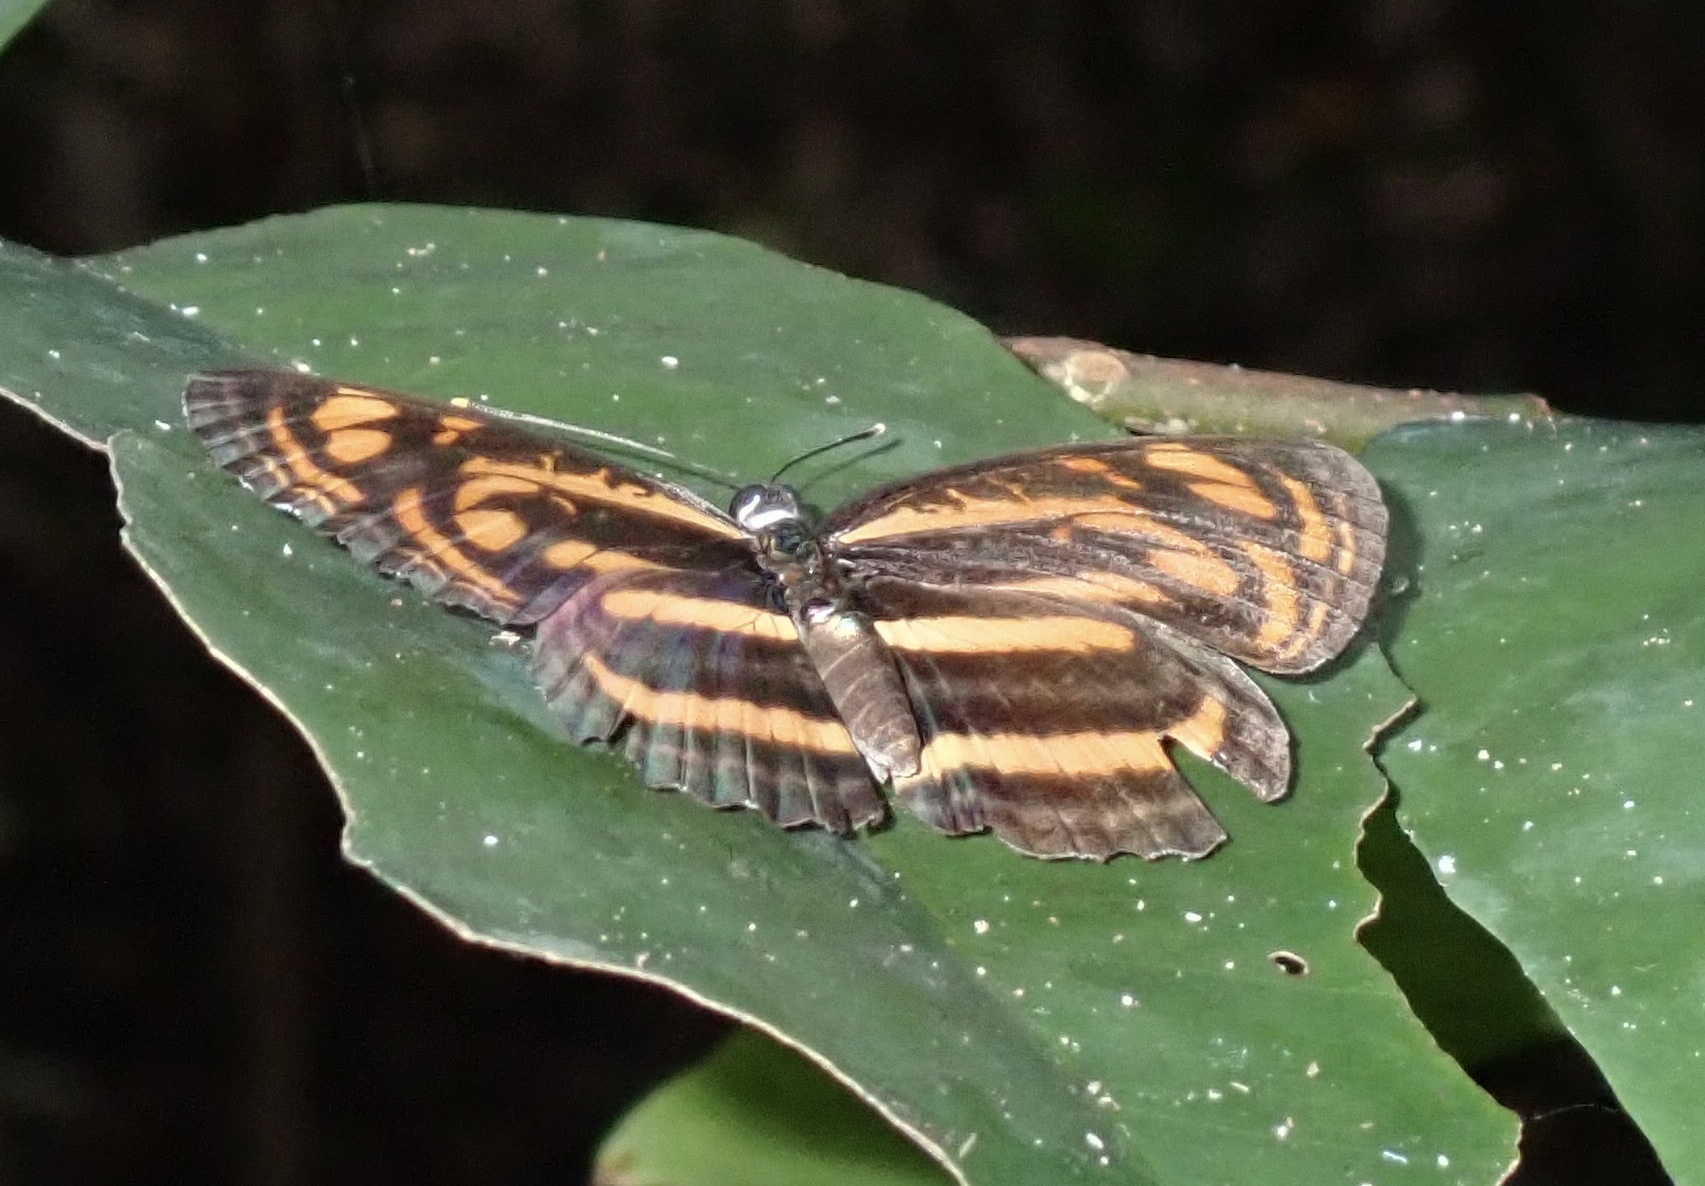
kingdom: Animalia
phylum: Arthropoda
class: Insecta
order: Lepidoptera
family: Nymphalidae
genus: Lasippa
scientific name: Lasippa neriphus
